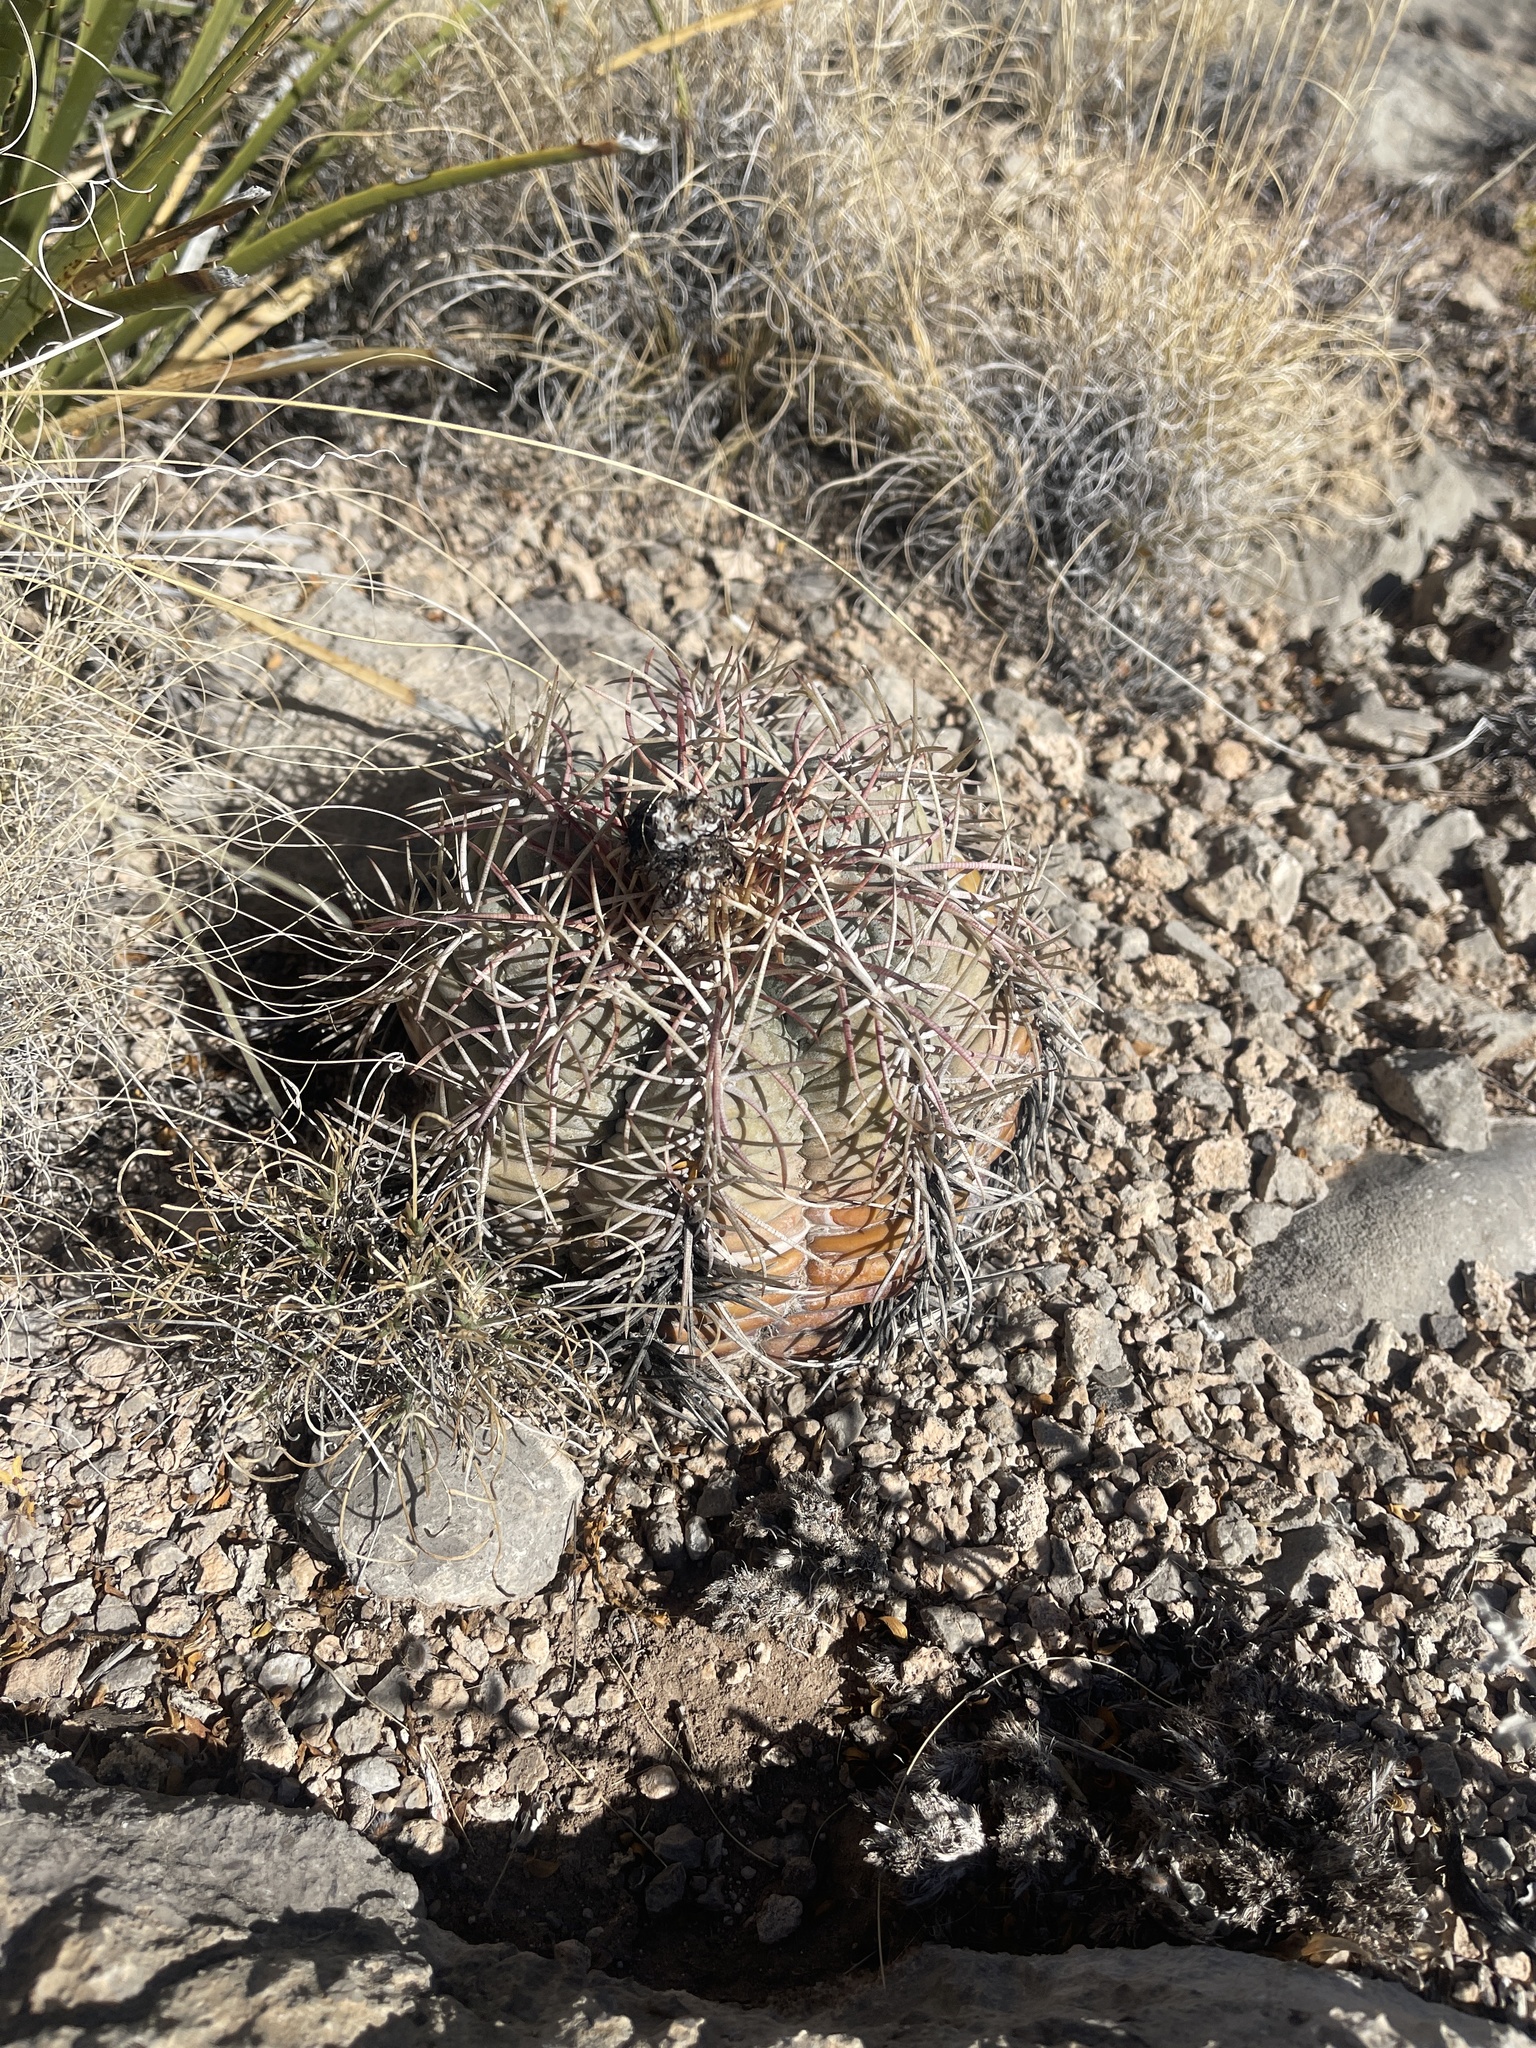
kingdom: Plantae
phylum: Tracheophyta
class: Magnoliopsida
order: Caryophyllales
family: Cactaceae
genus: Echinocactus
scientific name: Echinocactus horizonthalonius
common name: Devilshead
